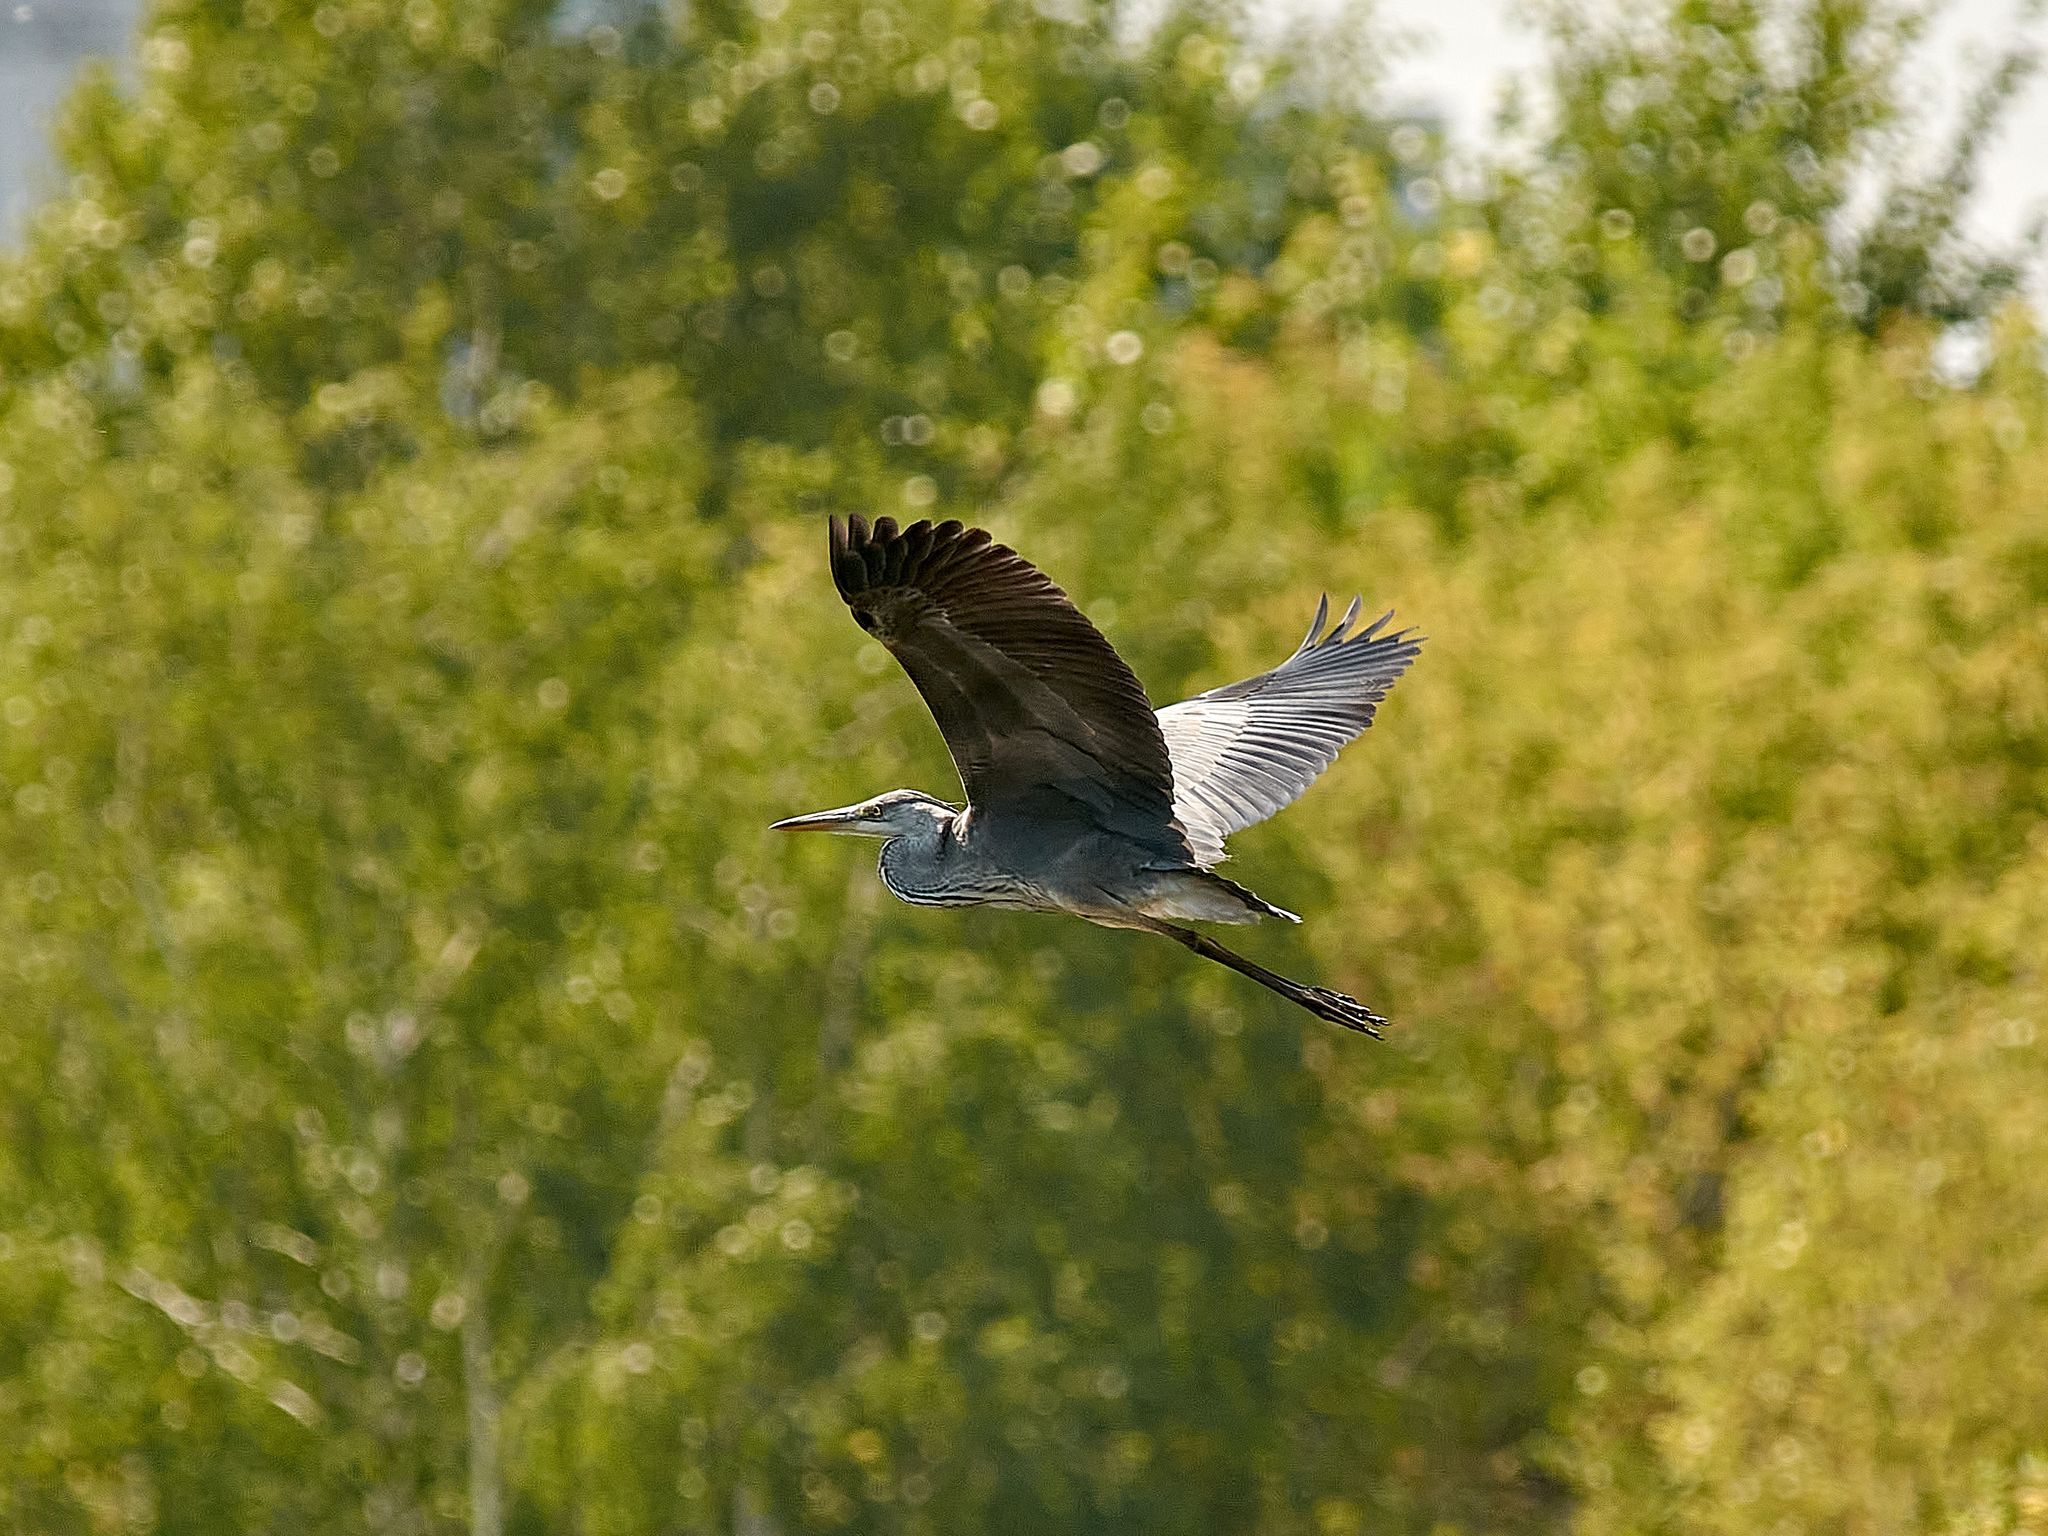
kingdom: Animalia
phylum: Chordata
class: Aves
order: Pelecaniformes
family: Ardeidae
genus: Ardea
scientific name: Ardea cinerea
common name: Grey heron
